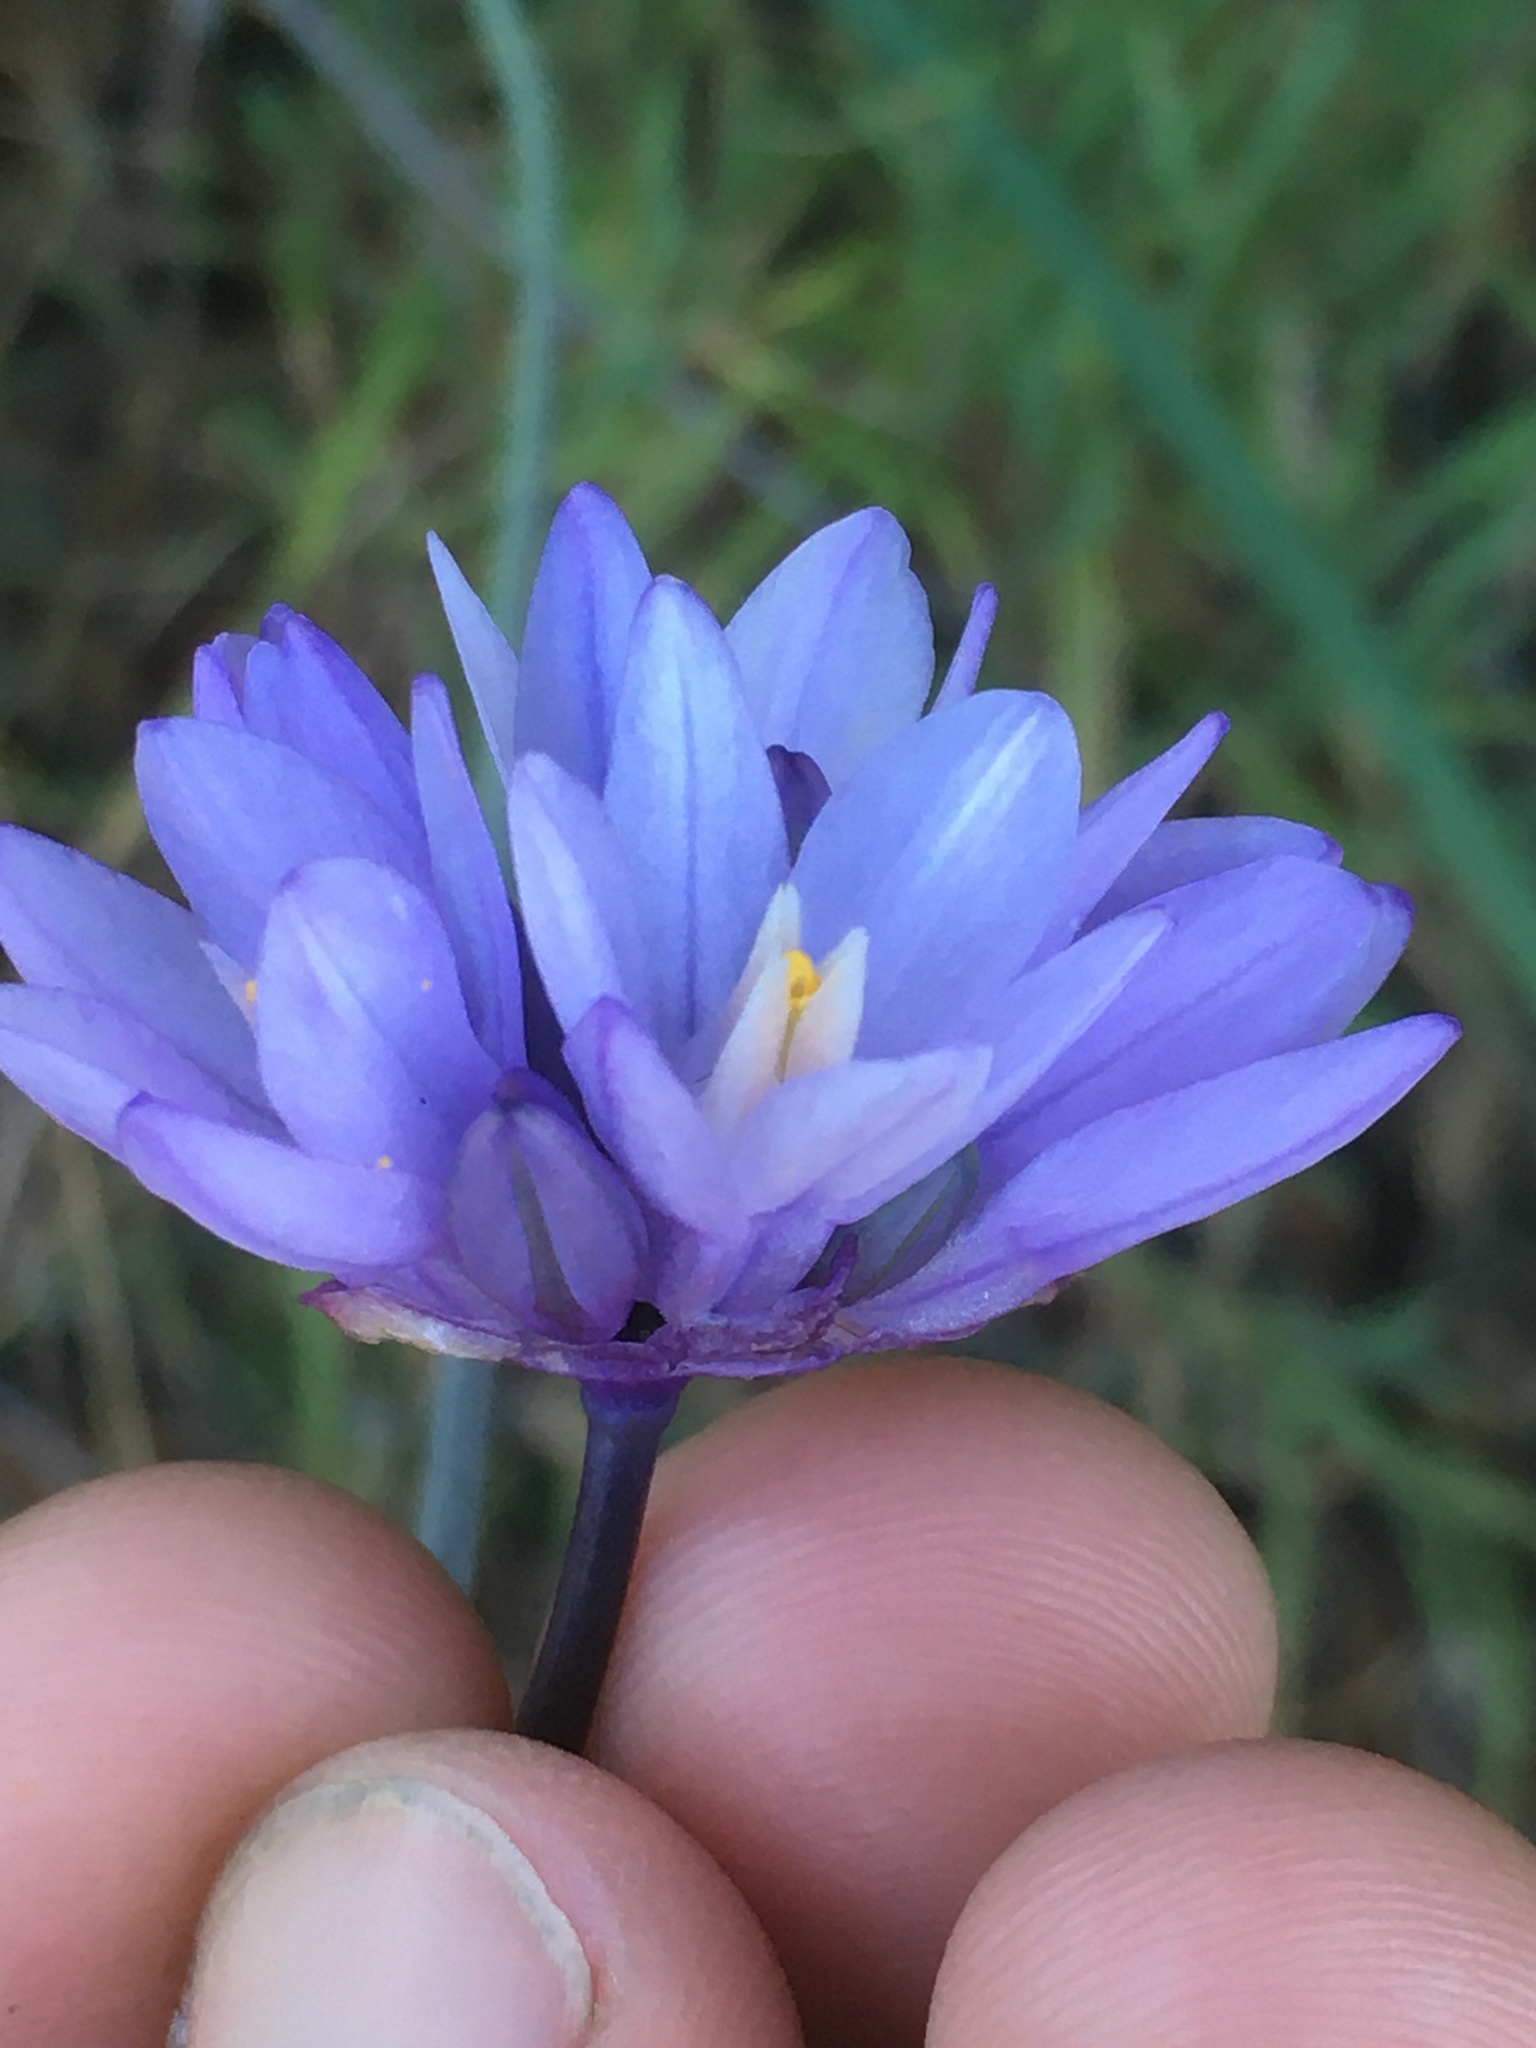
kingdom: Plantae
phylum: Tracheophyta
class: Liliopsida
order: Asparagales
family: Asparagaceae
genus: Dipterostemon
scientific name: Dipterostemon capitatus
